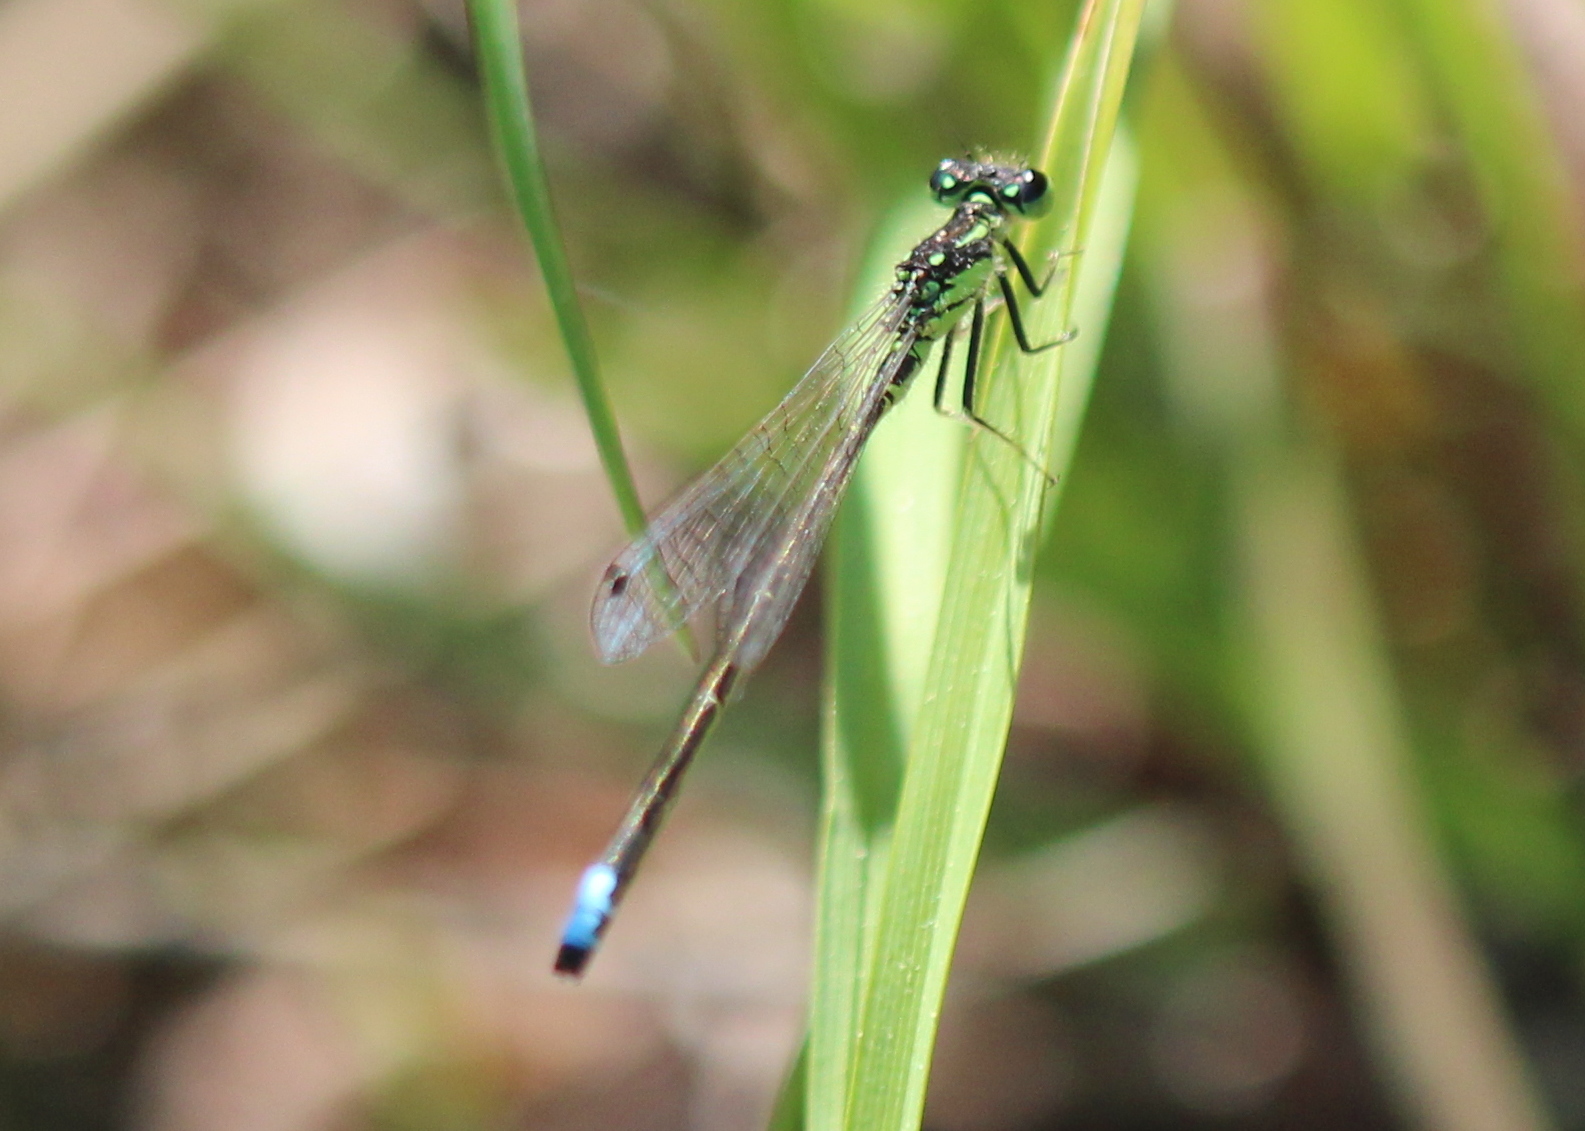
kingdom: Animalia
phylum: Arthropoda
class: Insecta
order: Odonata
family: Coenagrionidae
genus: Ischnura
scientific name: Ischnura verticalis
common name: Eastern forktail
